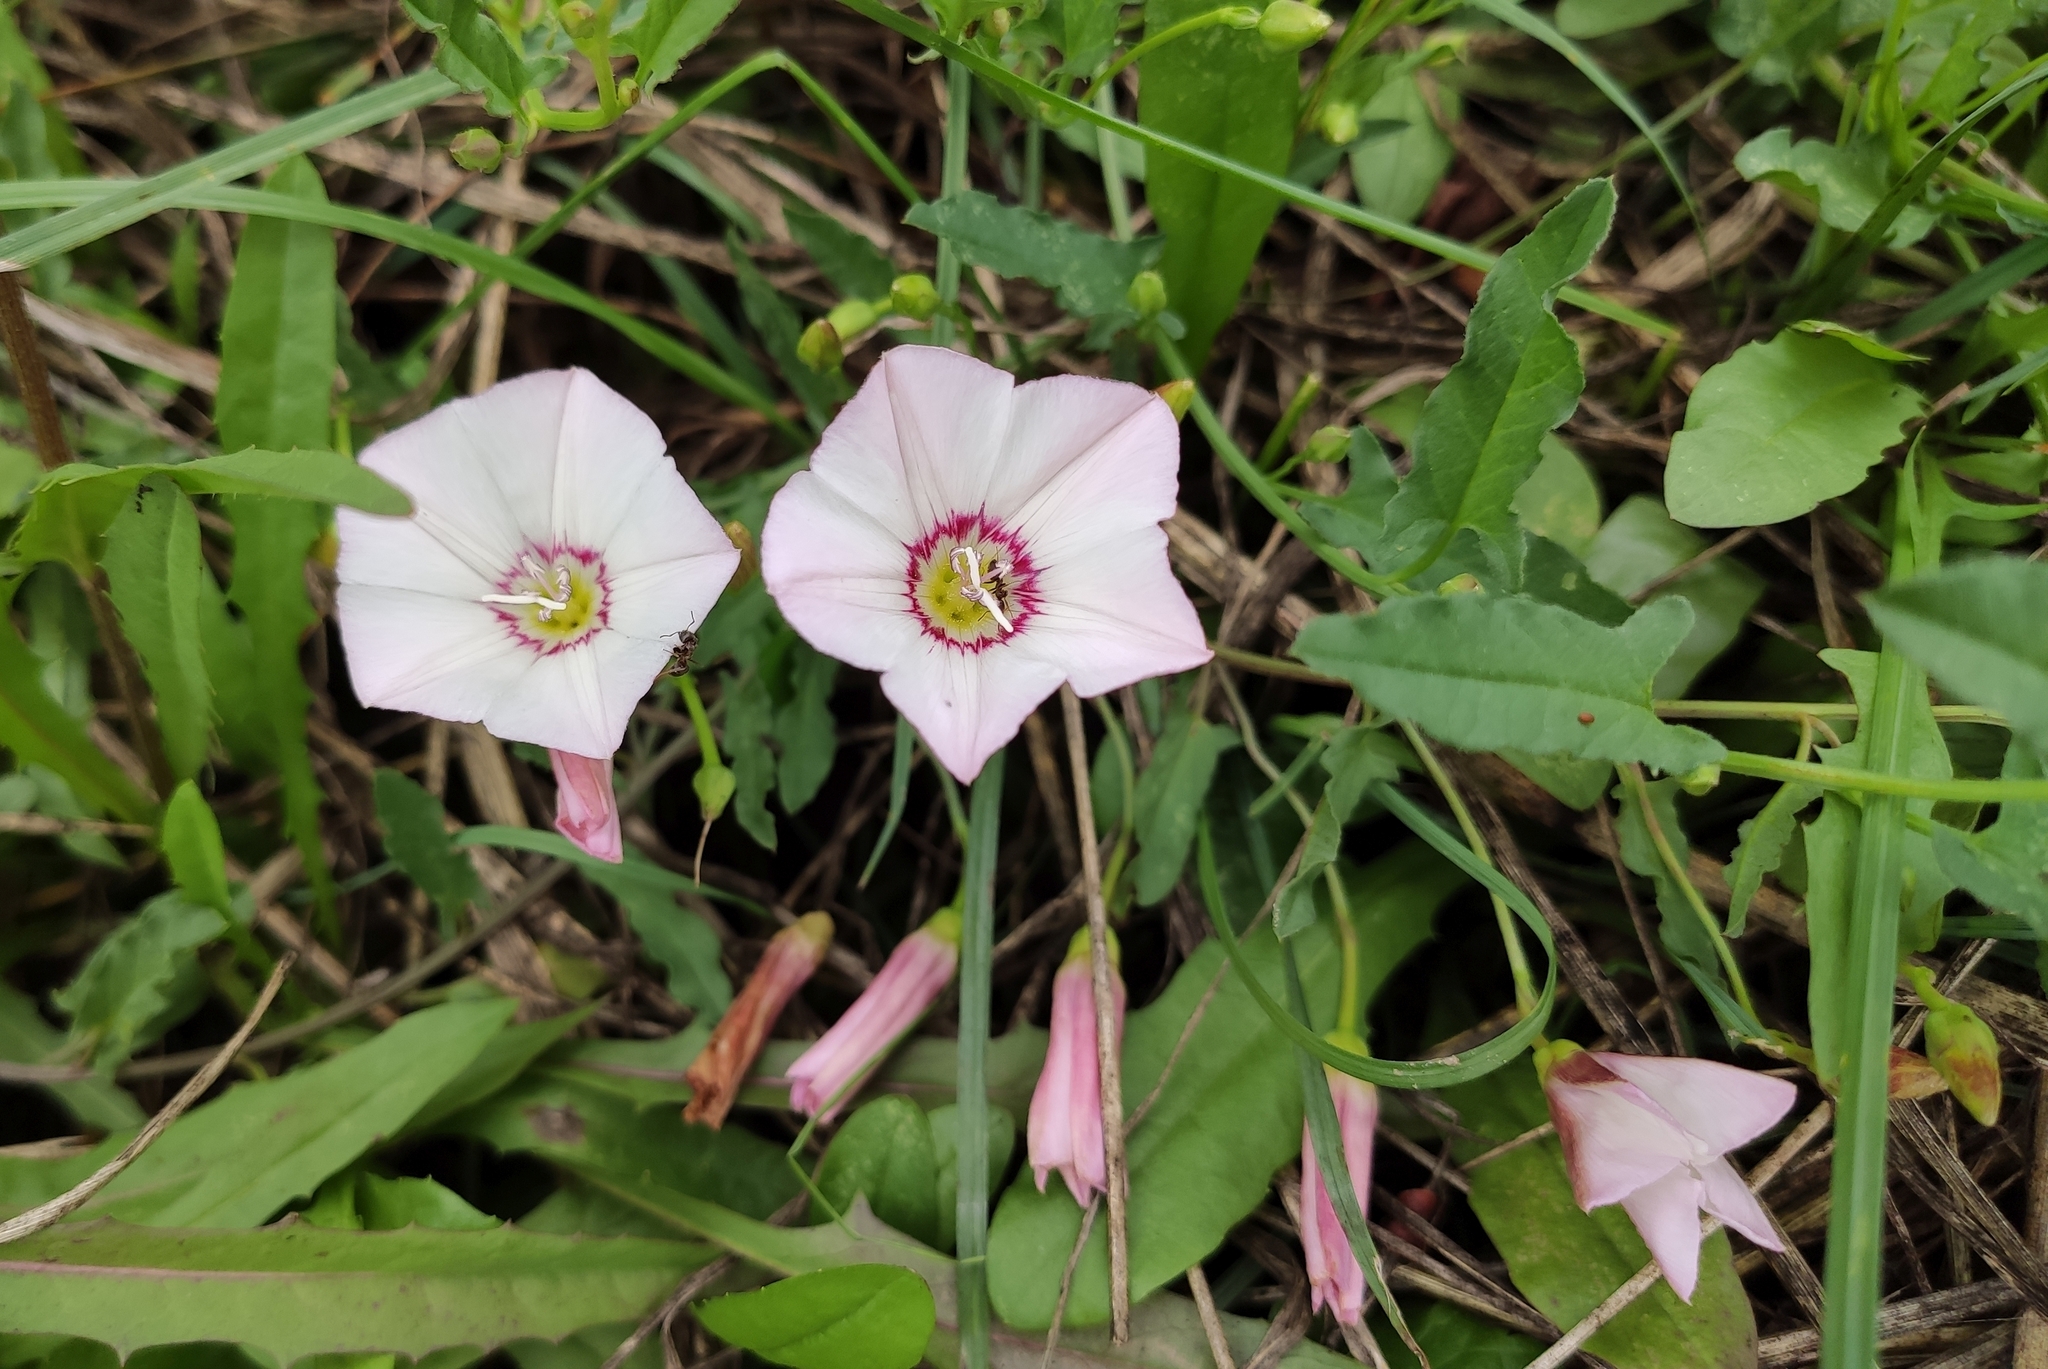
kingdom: Plantae
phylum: Tracheophyta
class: Magnoliopsida
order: Solanales
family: Convolvulaceae
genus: Convolvulus
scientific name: Convolvulus arvensis
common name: Field bindweed
